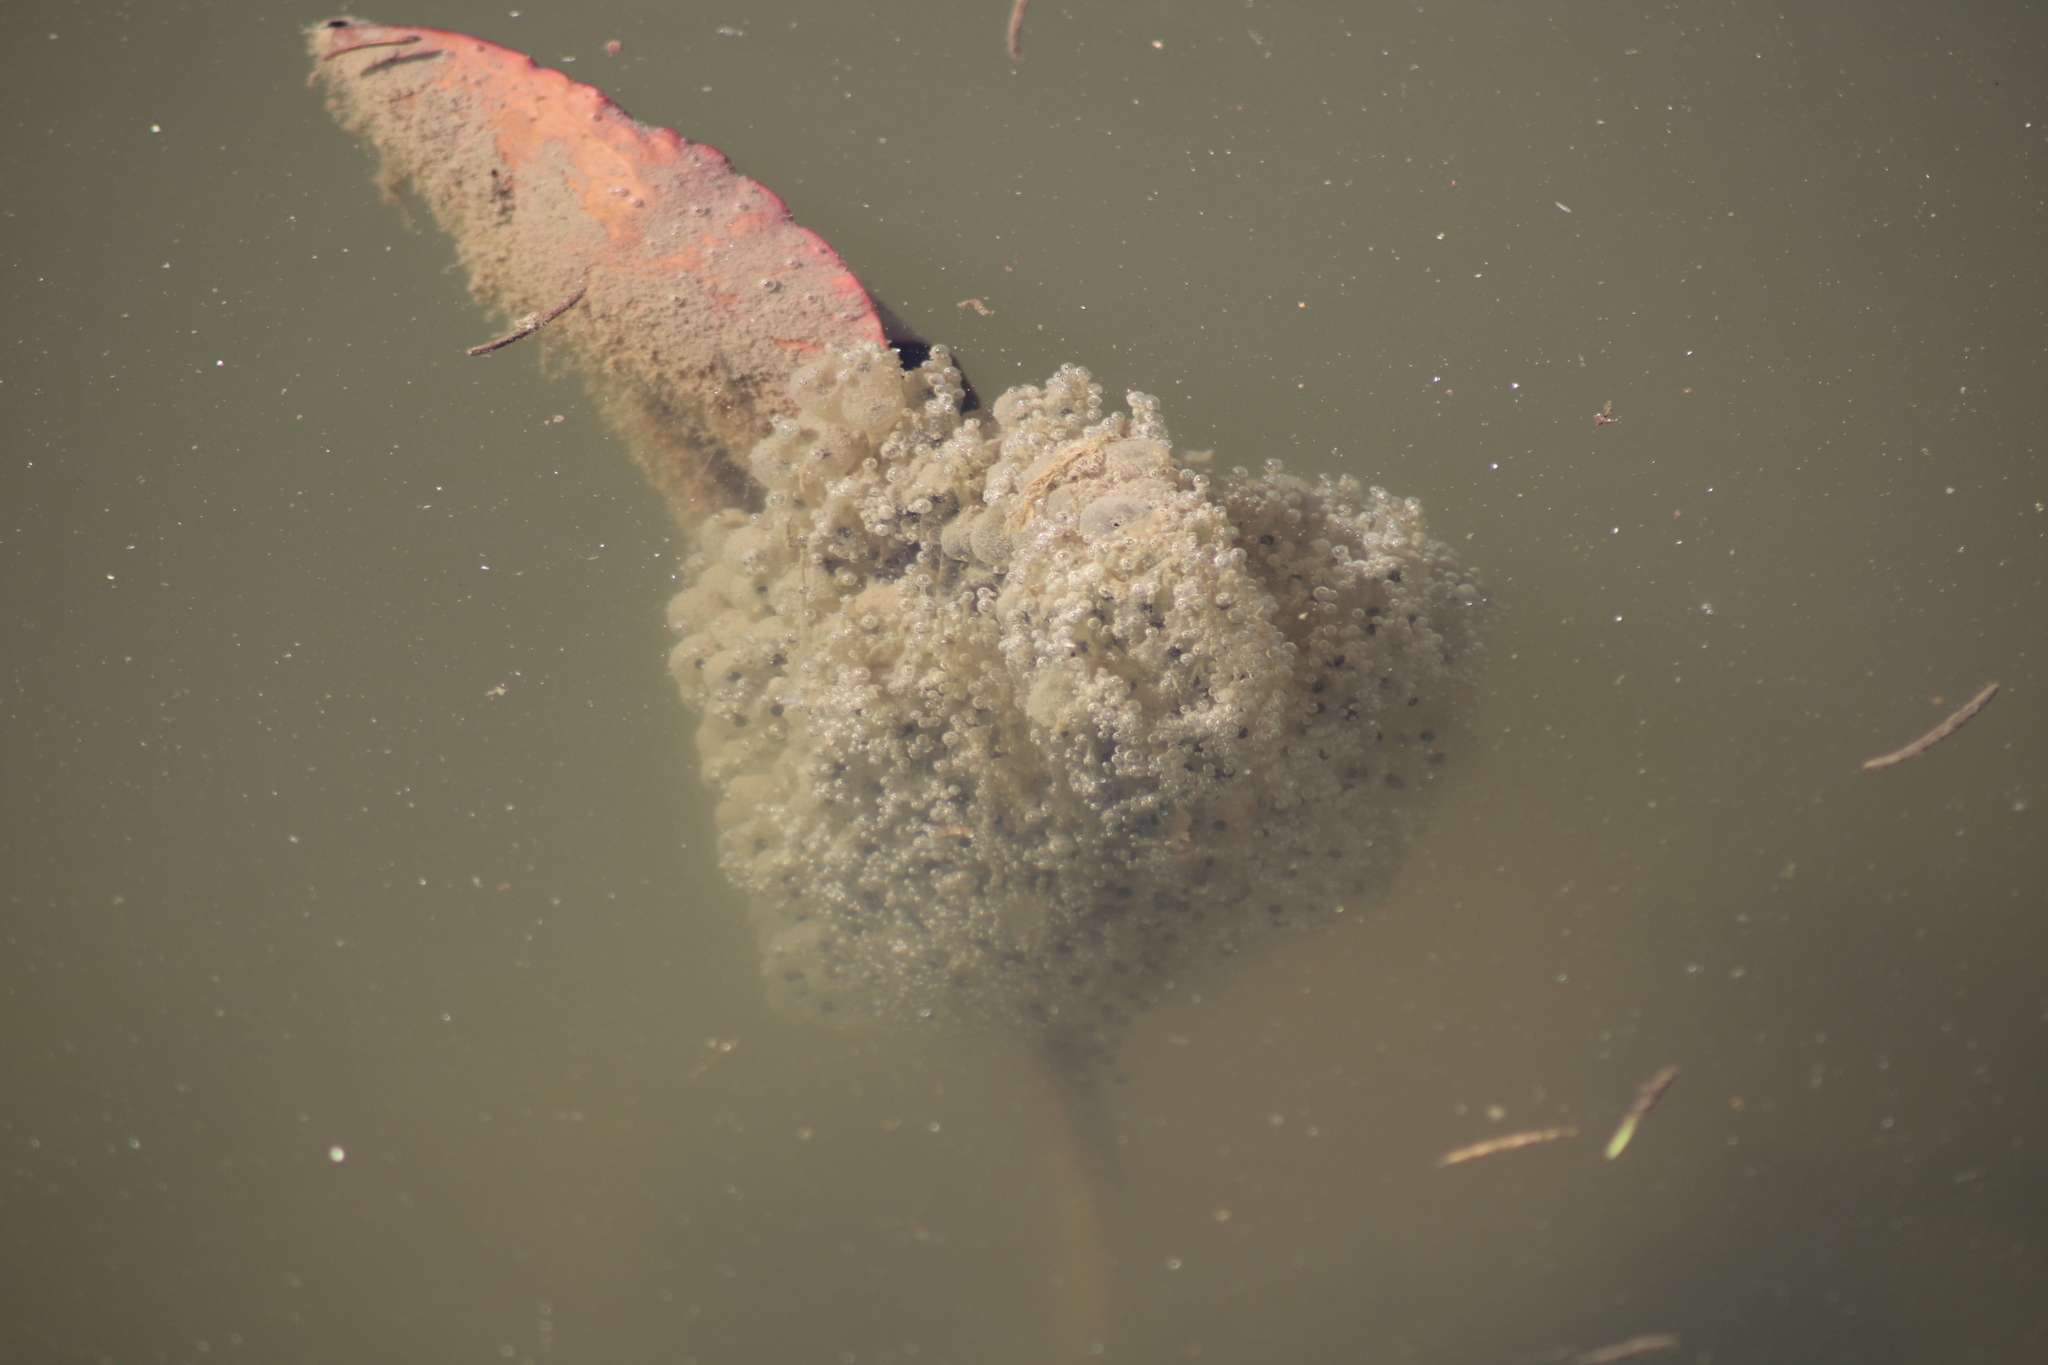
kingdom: Animalia
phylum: Chordata
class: Amphibia
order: Anura
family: Ranidae
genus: Rana
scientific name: Rana dalmatina
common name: Agile frog
